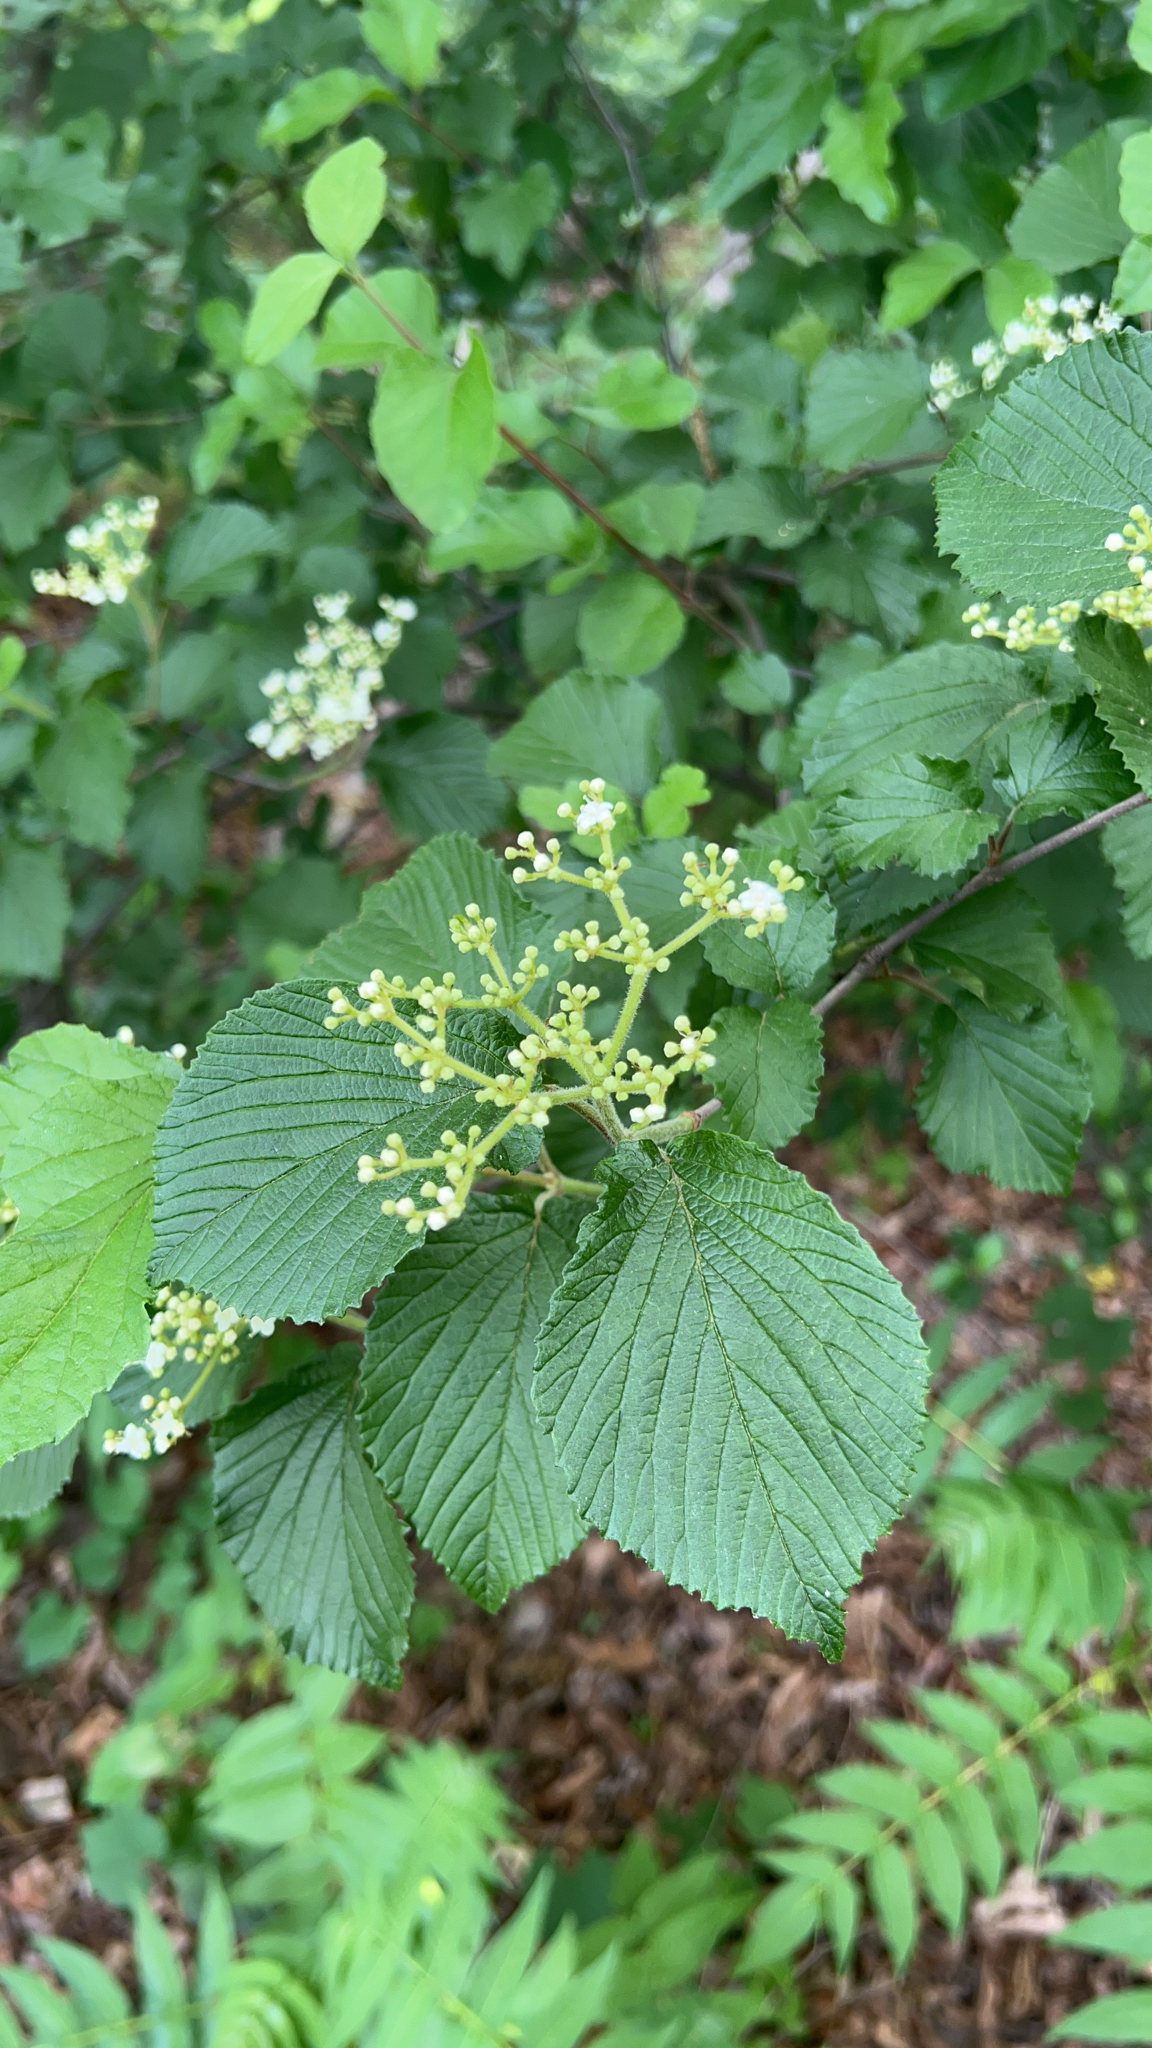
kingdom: Plantae
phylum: Tracheophyta
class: Magnoliopsida
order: Dipsacales
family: Viburnaceae
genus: Viburnum
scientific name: Viburnum dilatatum
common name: Linden arrowwood
